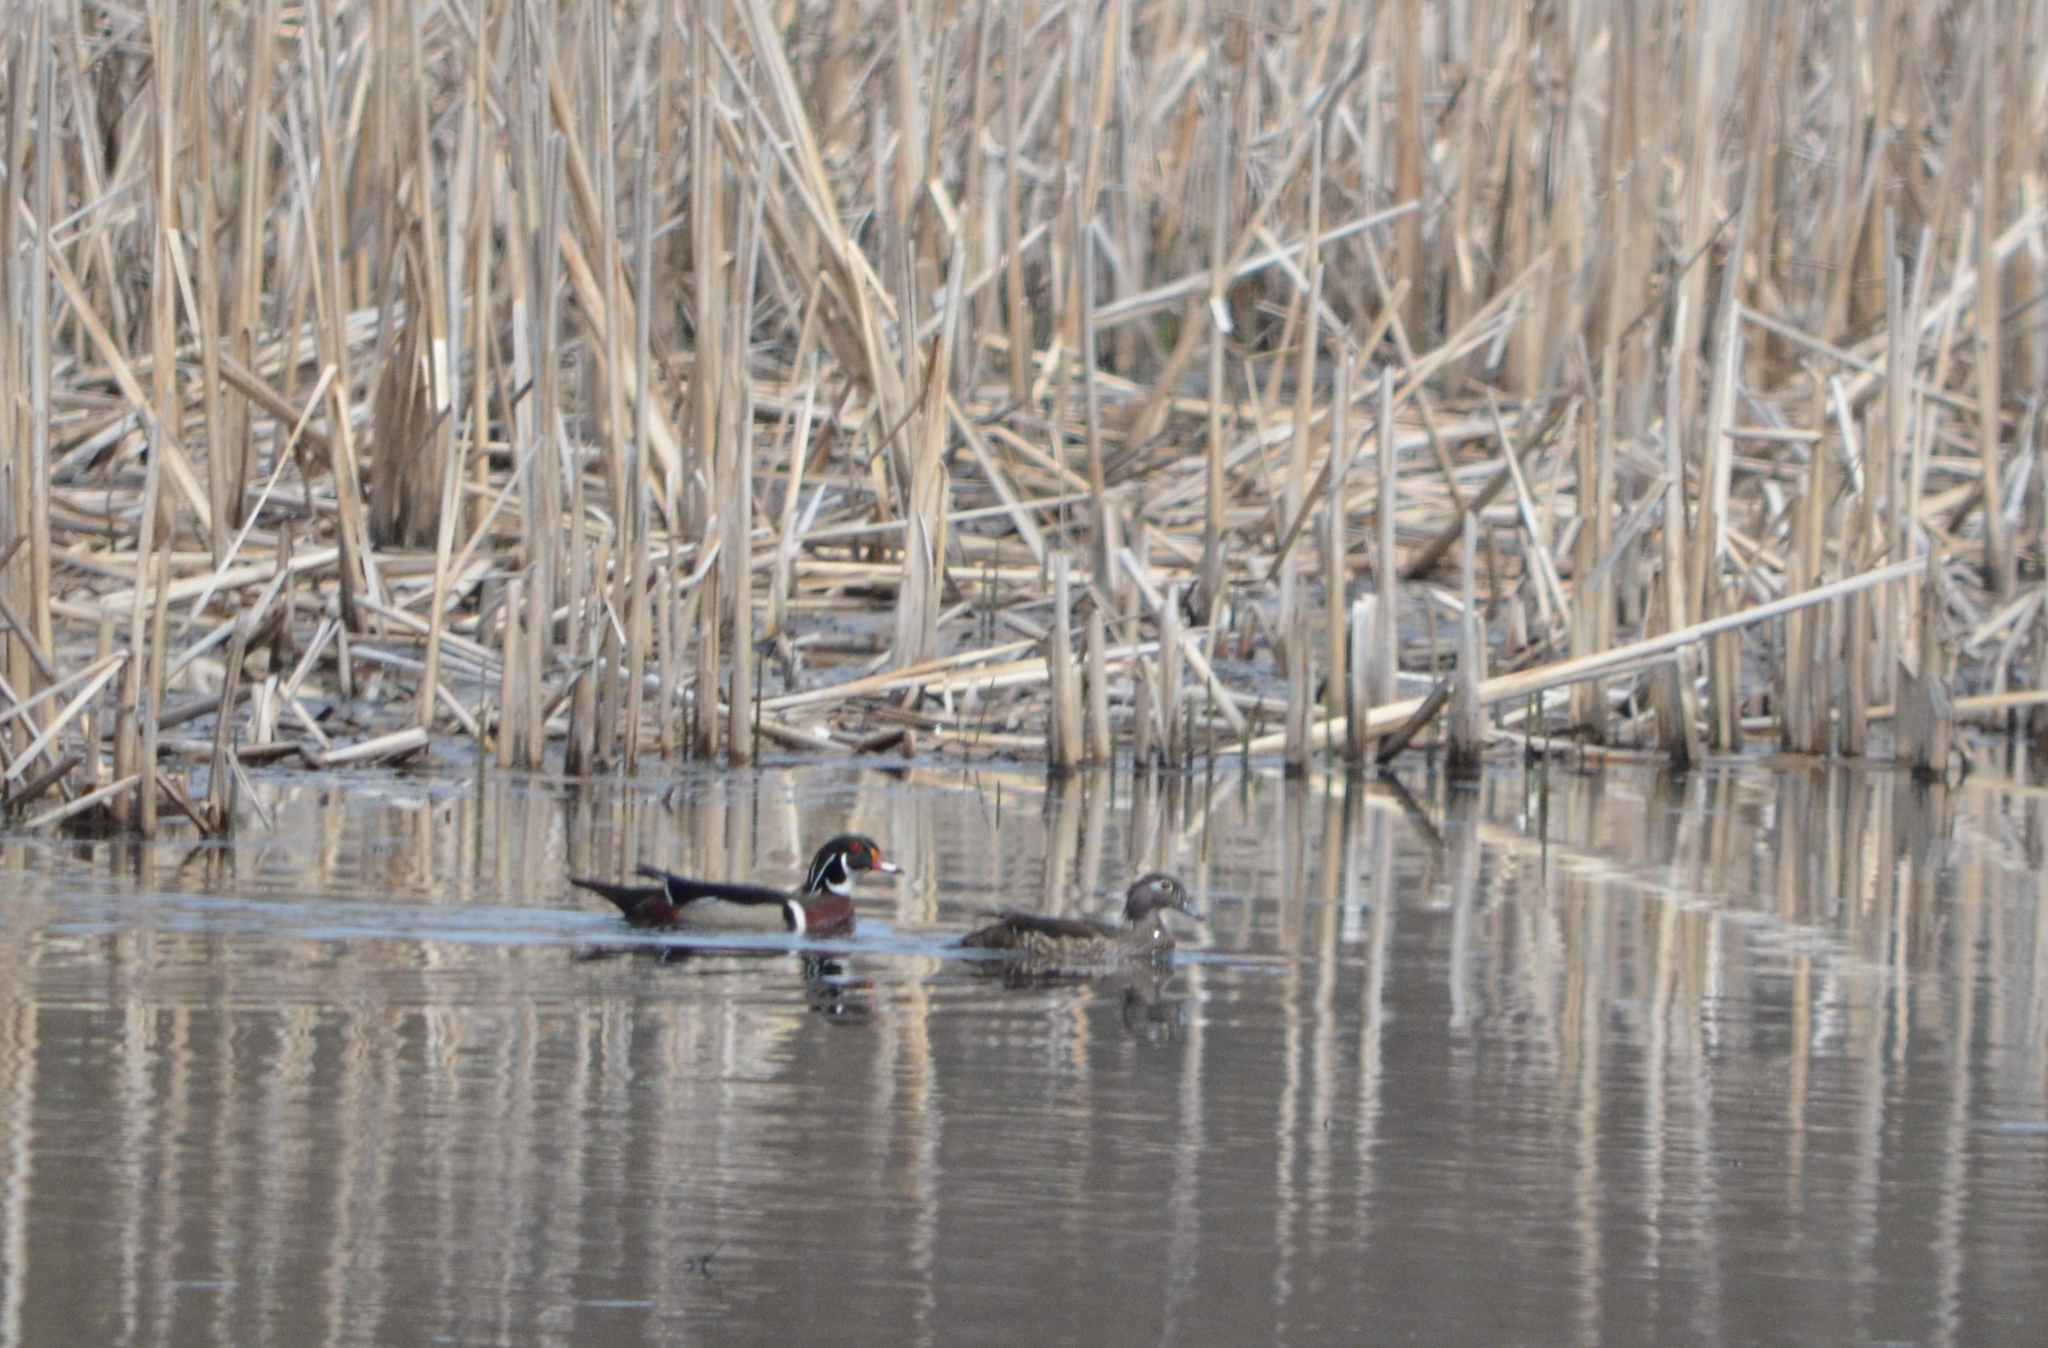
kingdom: Animalia
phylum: Chordata
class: Aves
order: Anseriformes
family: Anatidae
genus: Aix
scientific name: Aix sponsa
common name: Wood duck
